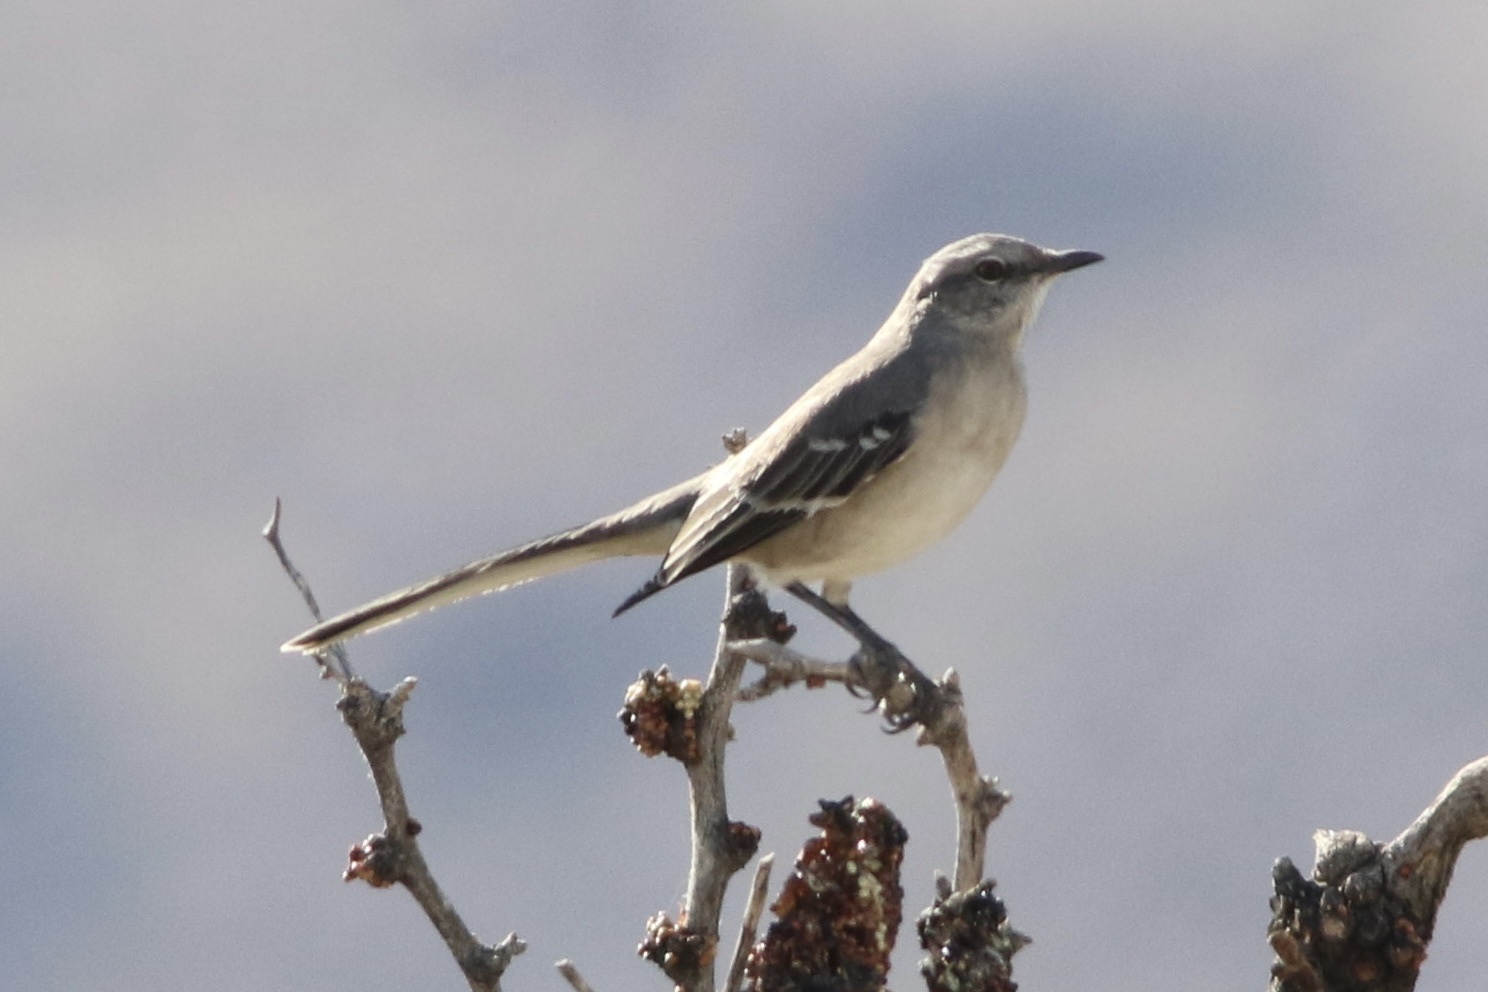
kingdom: Animalia
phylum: Chordata
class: Aves
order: Passeriformes
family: Mimidae
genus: Mimus
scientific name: Mimus polyglottos
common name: Northern mockingbird
